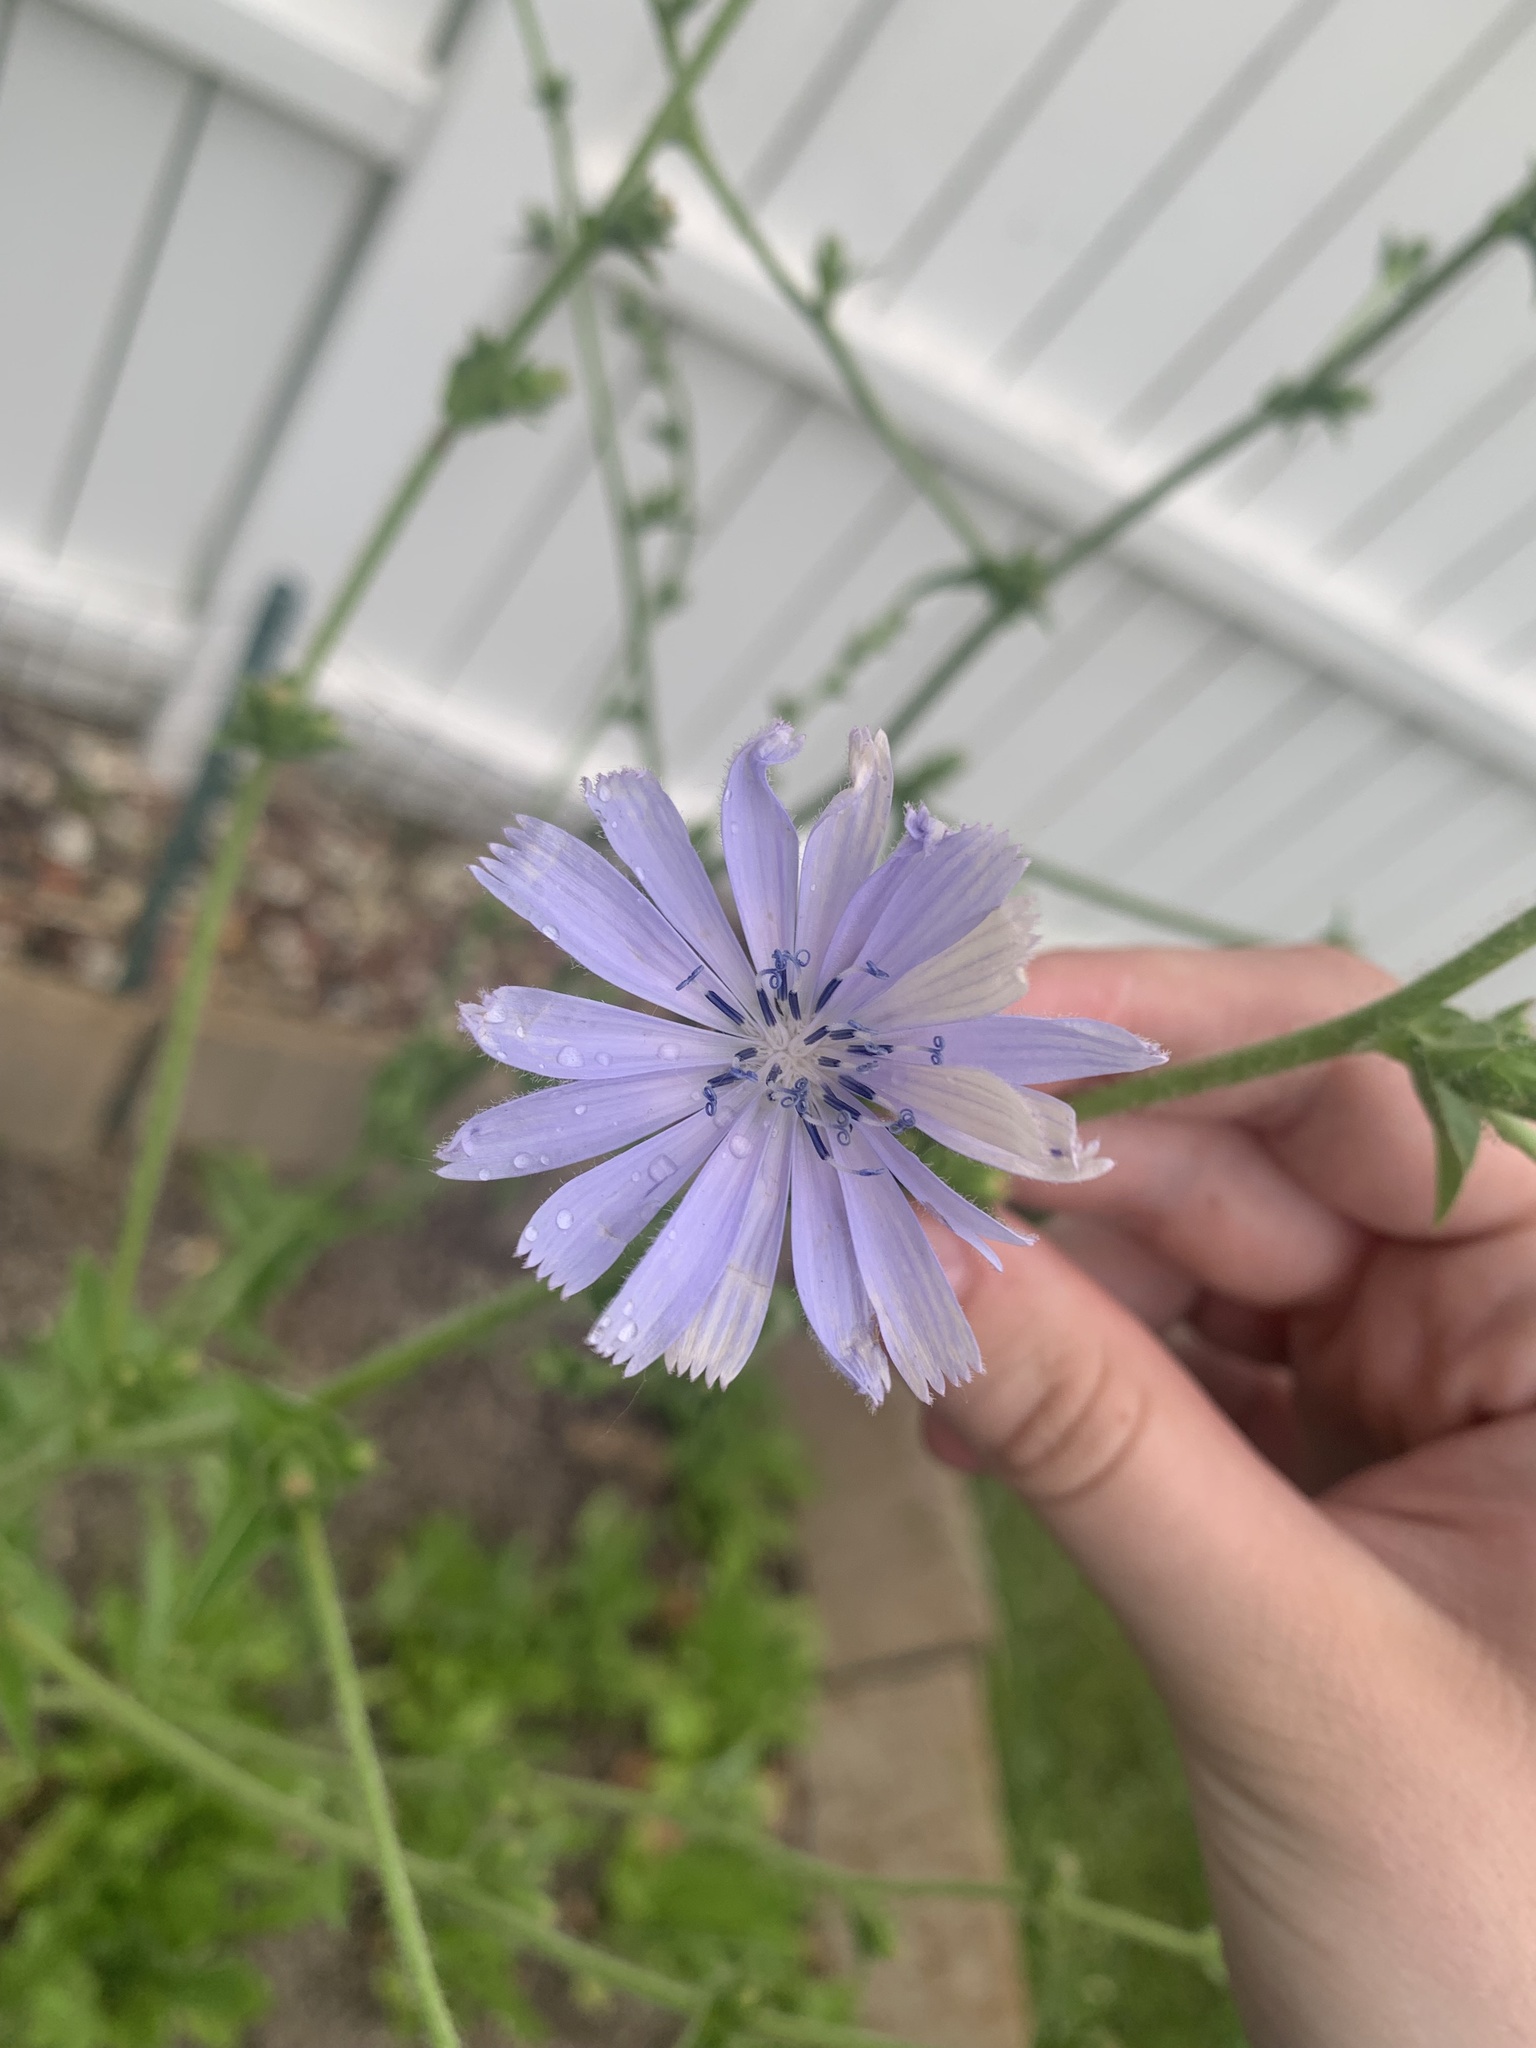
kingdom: Plantae
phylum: Tracheophyta
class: Magnoliopsida
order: Asterales
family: Asteraceae
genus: Cichorium
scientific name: Cichorium intybus
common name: Chicory
